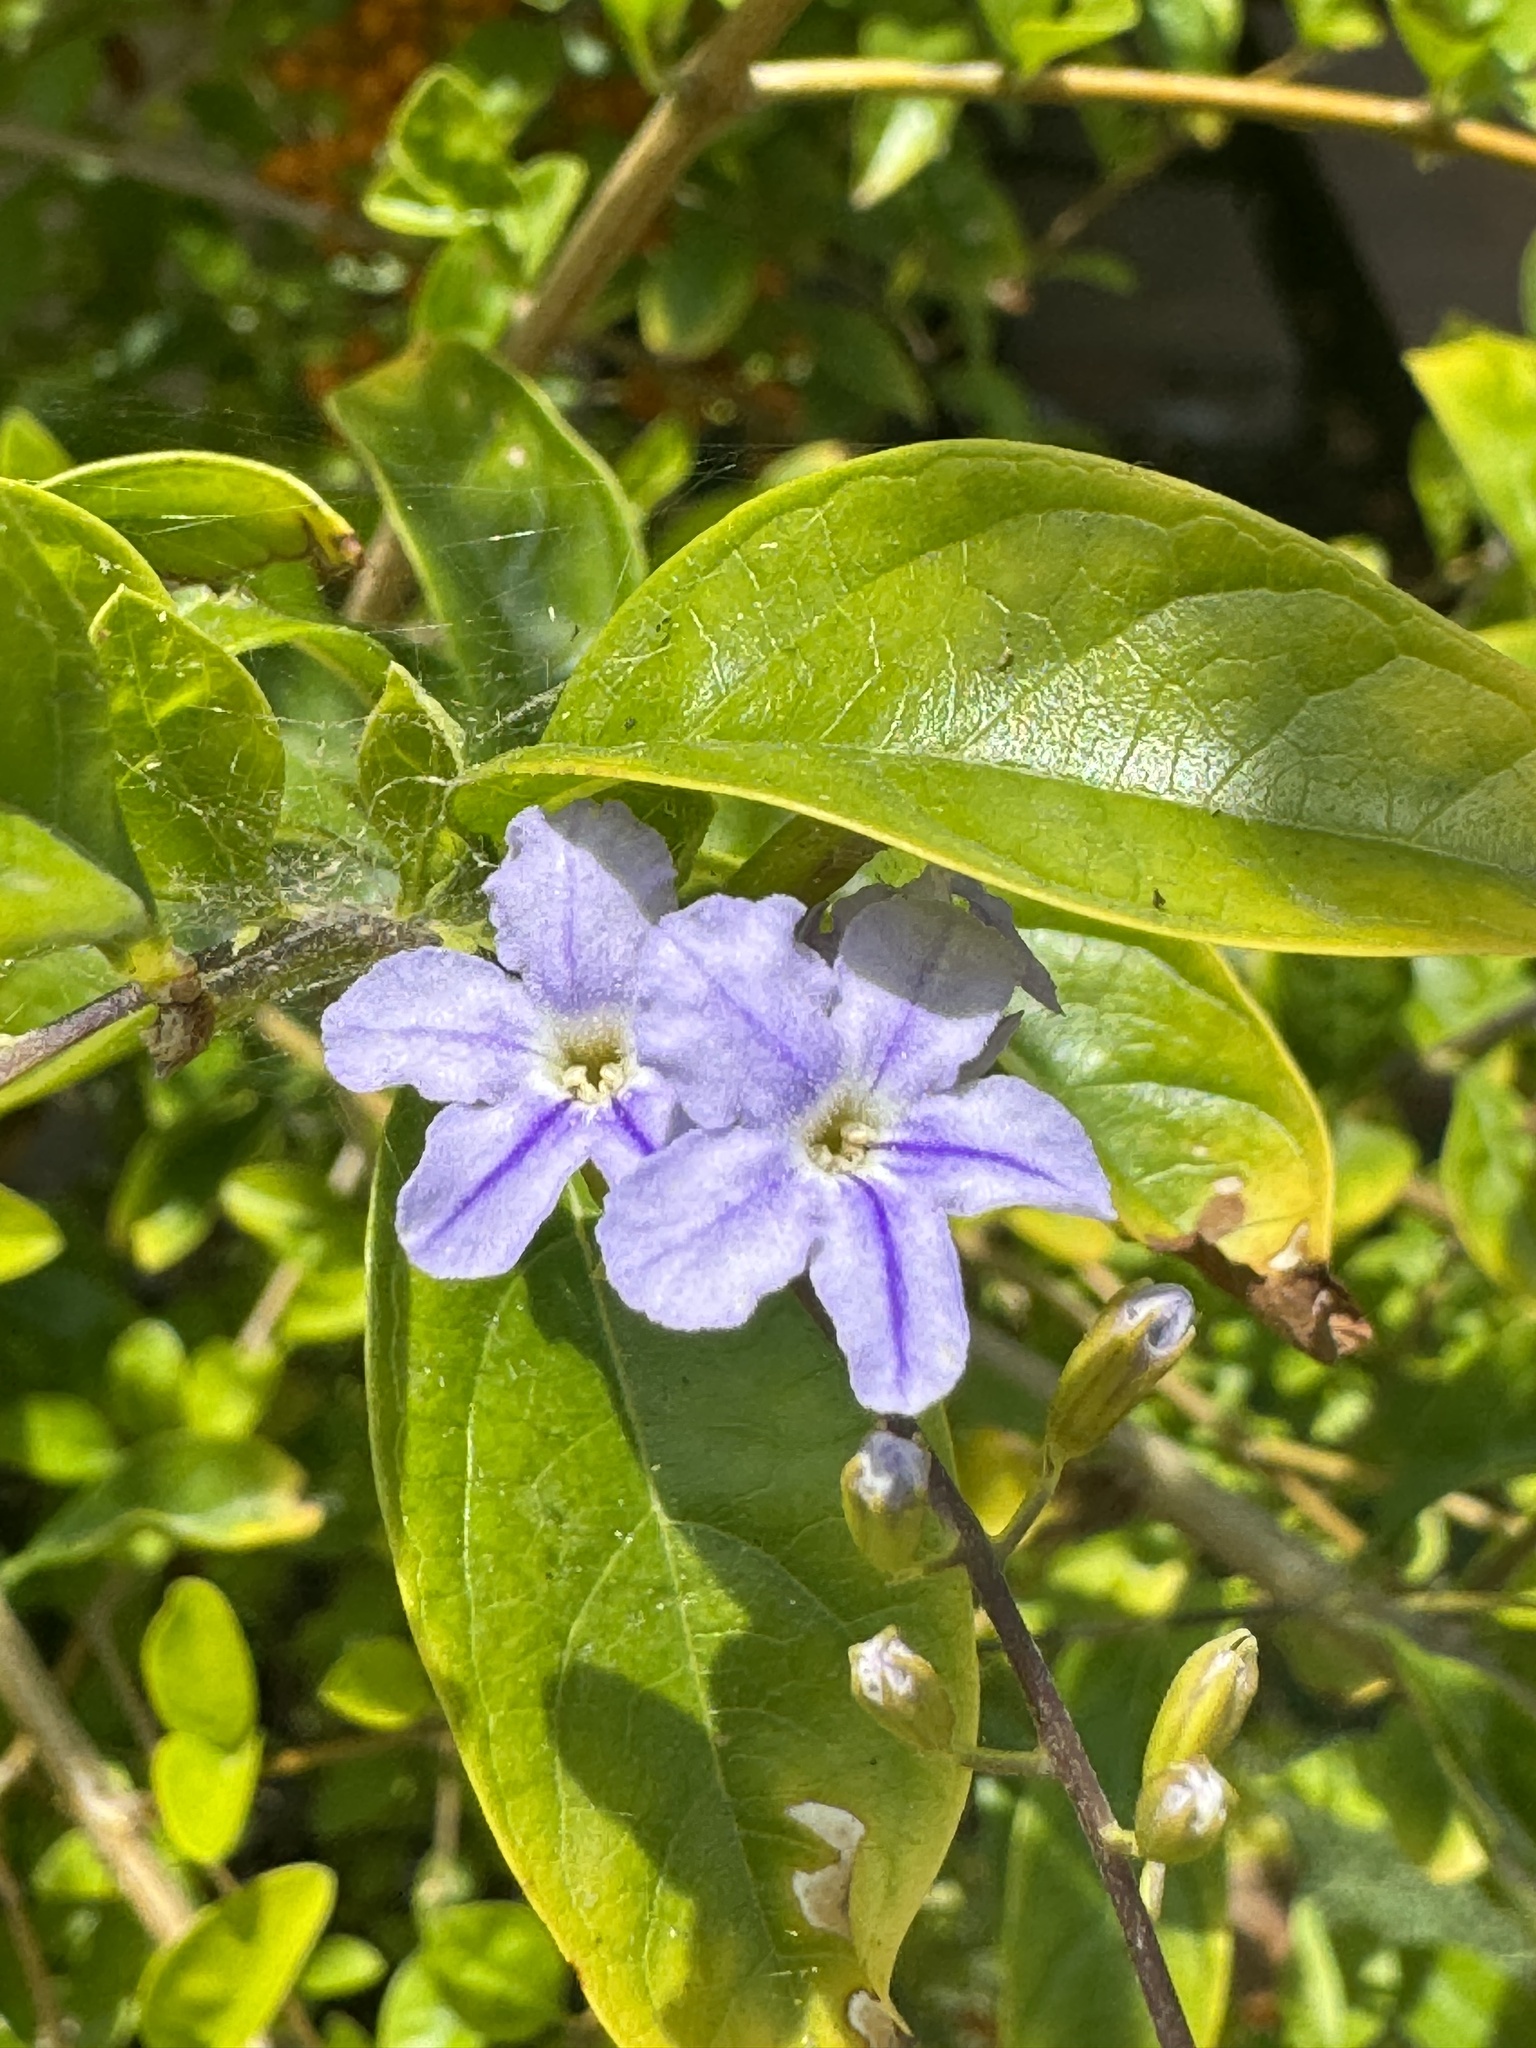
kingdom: Plantae
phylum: Tracheophyta
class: Magnoliopsida
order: Lamiales
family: Verbenaceae
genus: Duranta
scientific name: Duranta erecta
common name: Golden dewdrops
